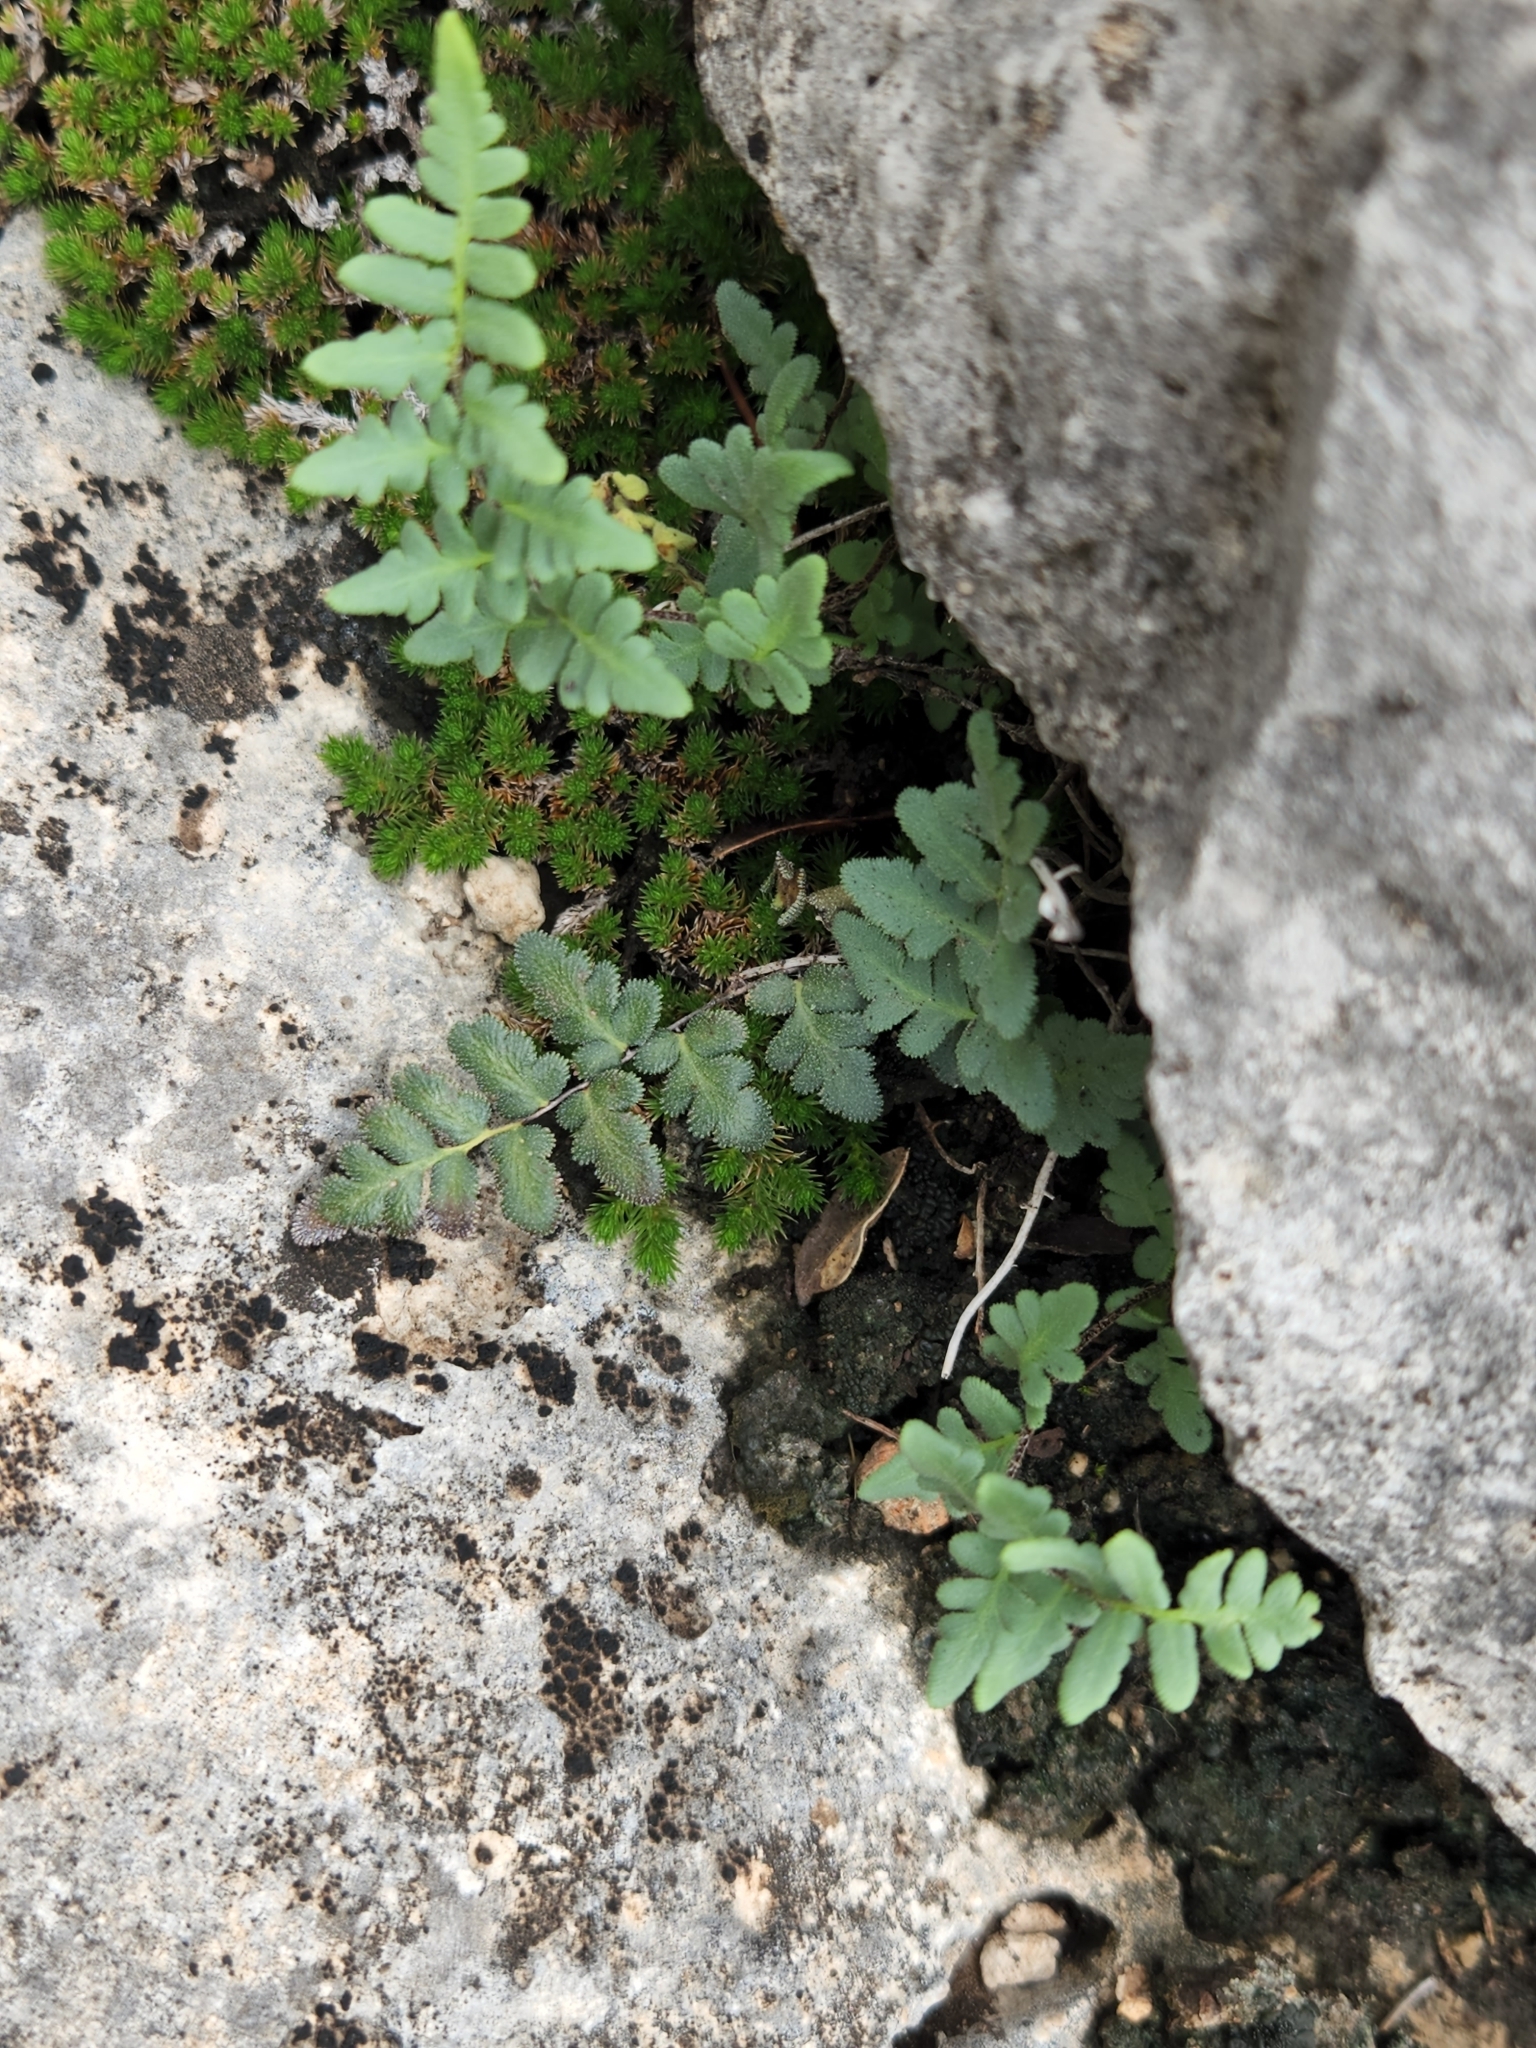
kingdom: Plantae
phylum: Tracheophyta
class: Polypodiopsida
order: Polypodiales
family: Pteridaceae
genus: Myriopteris
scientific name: Myriopteris scabra
